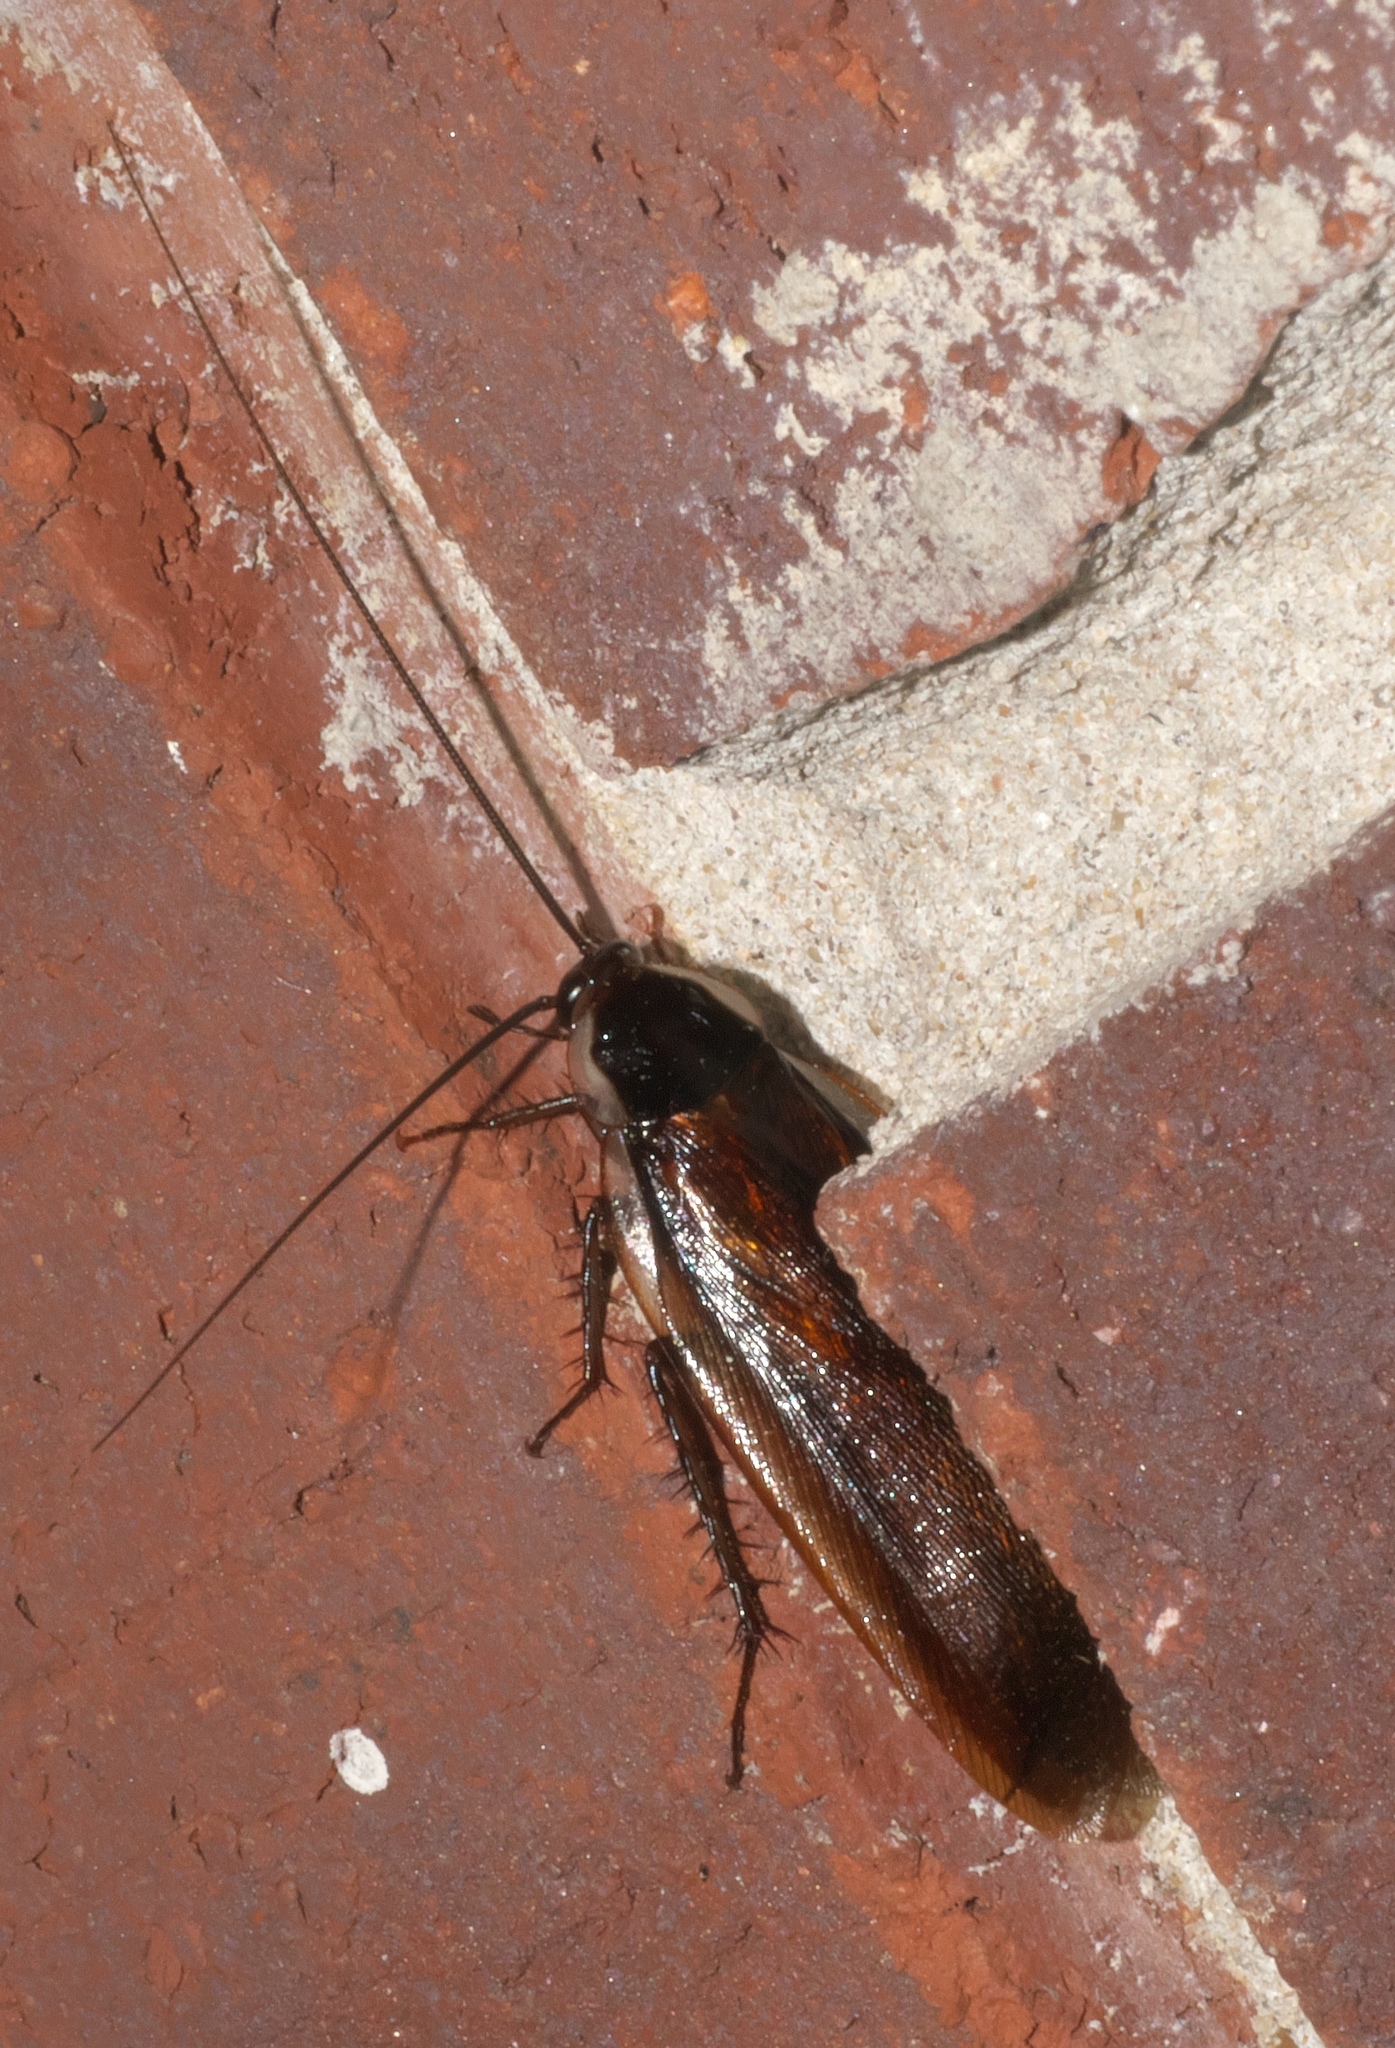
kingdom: Animalia
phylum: Arthropoda
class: Insecta
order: Blattodea
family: Ectobiidae
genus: Parcoblatta
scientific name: Parcoblatta pennsylvanica
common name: Pennsylvanian wood cockroach
